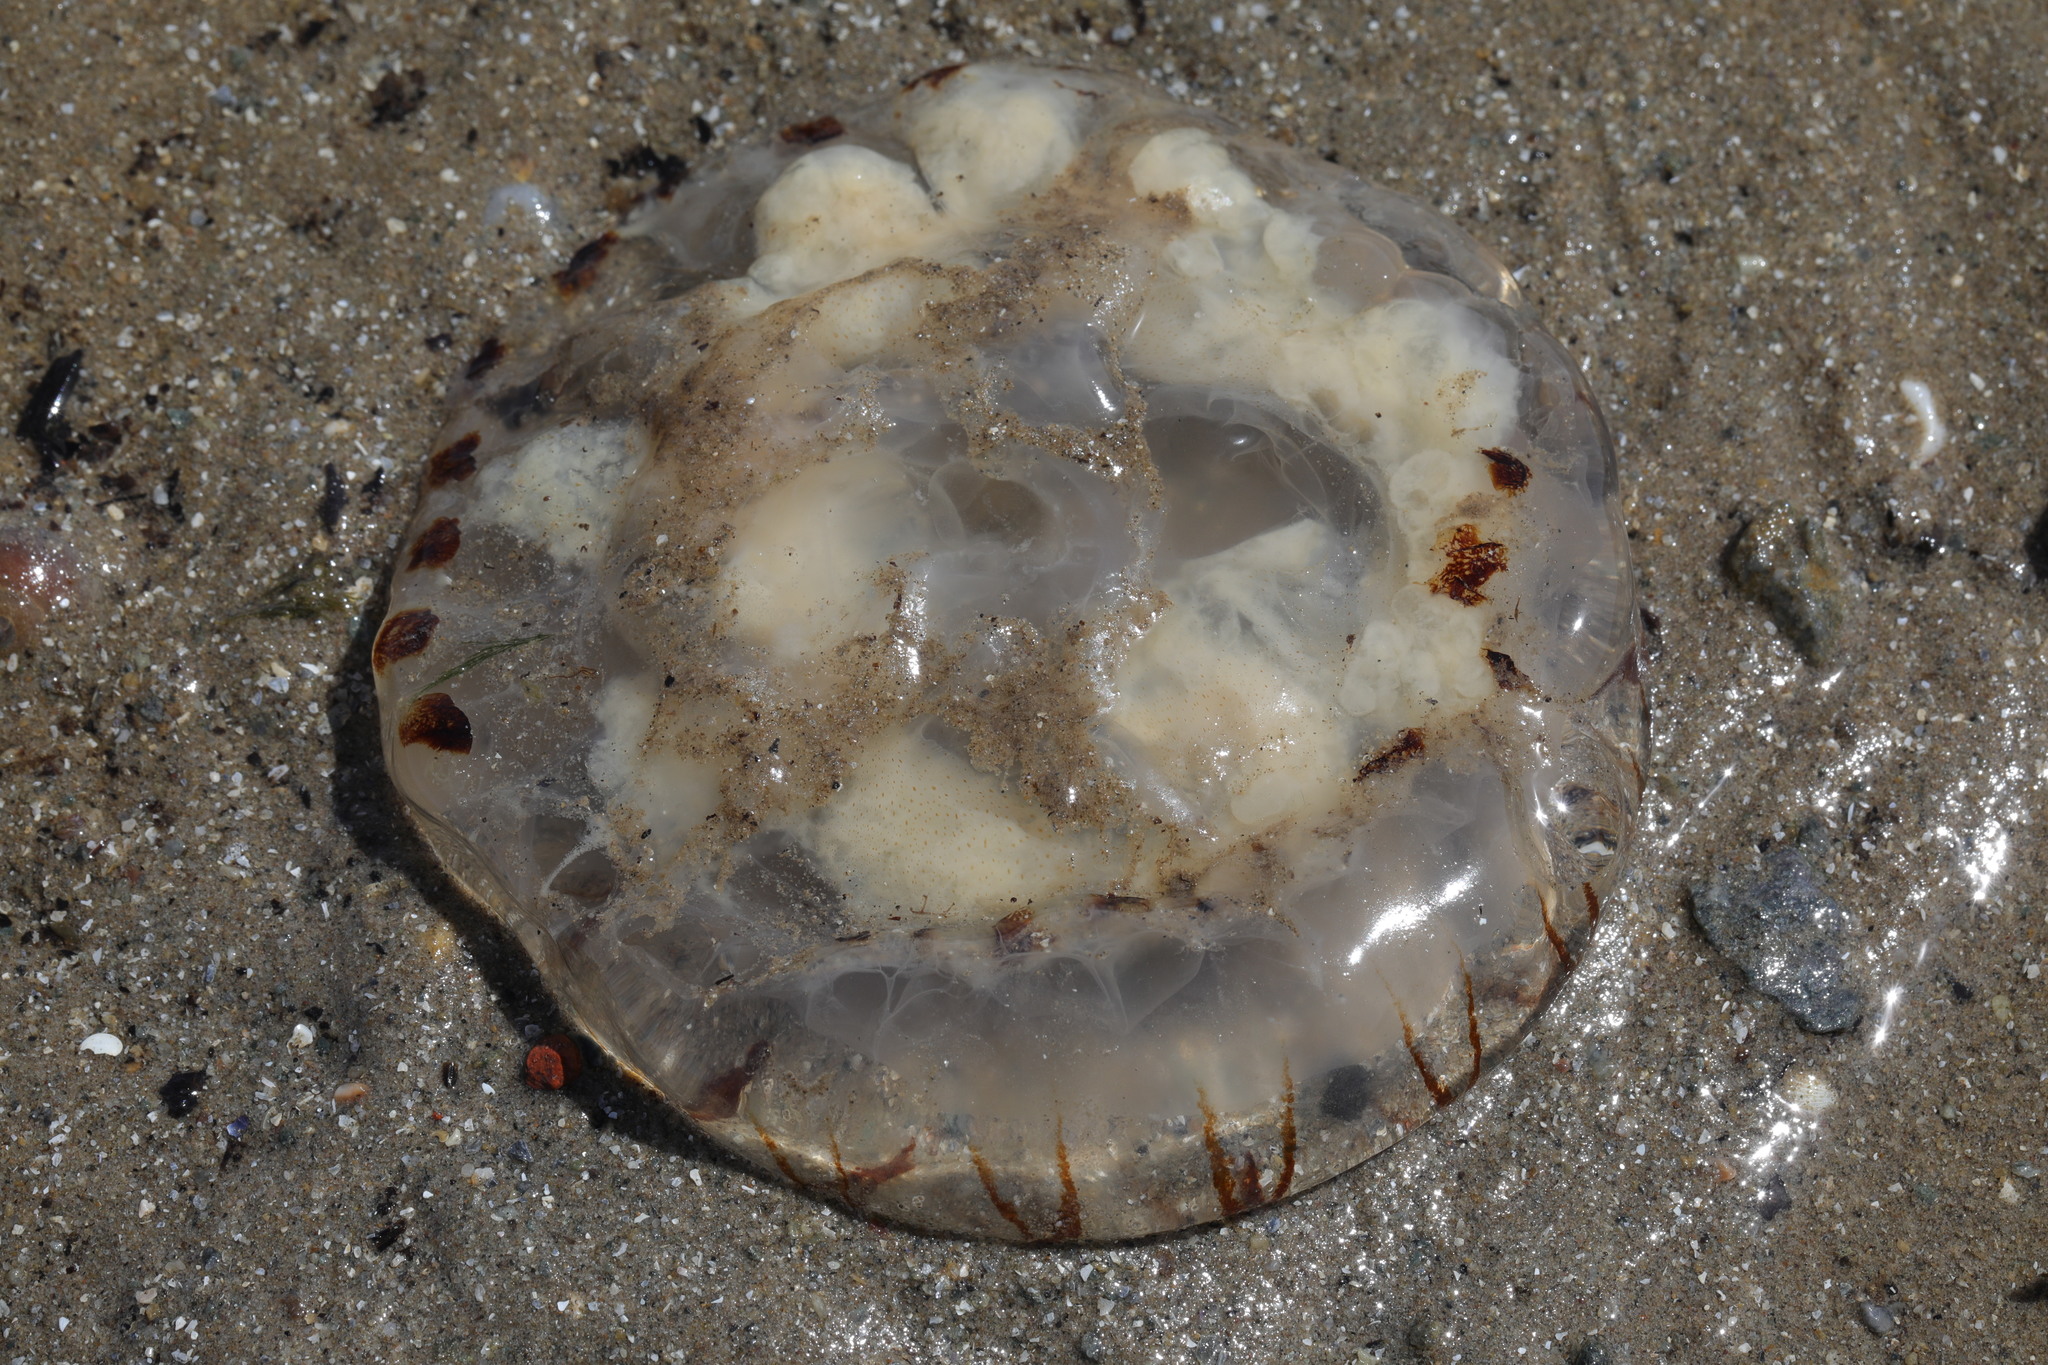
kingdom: Animalia
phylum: Cnidaria
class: Scyphozoa
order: Semaeostomeae
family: Pelagiidae
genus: Chrysaora
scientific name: Chrysaora hysoscella
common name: Compass jellyfish
